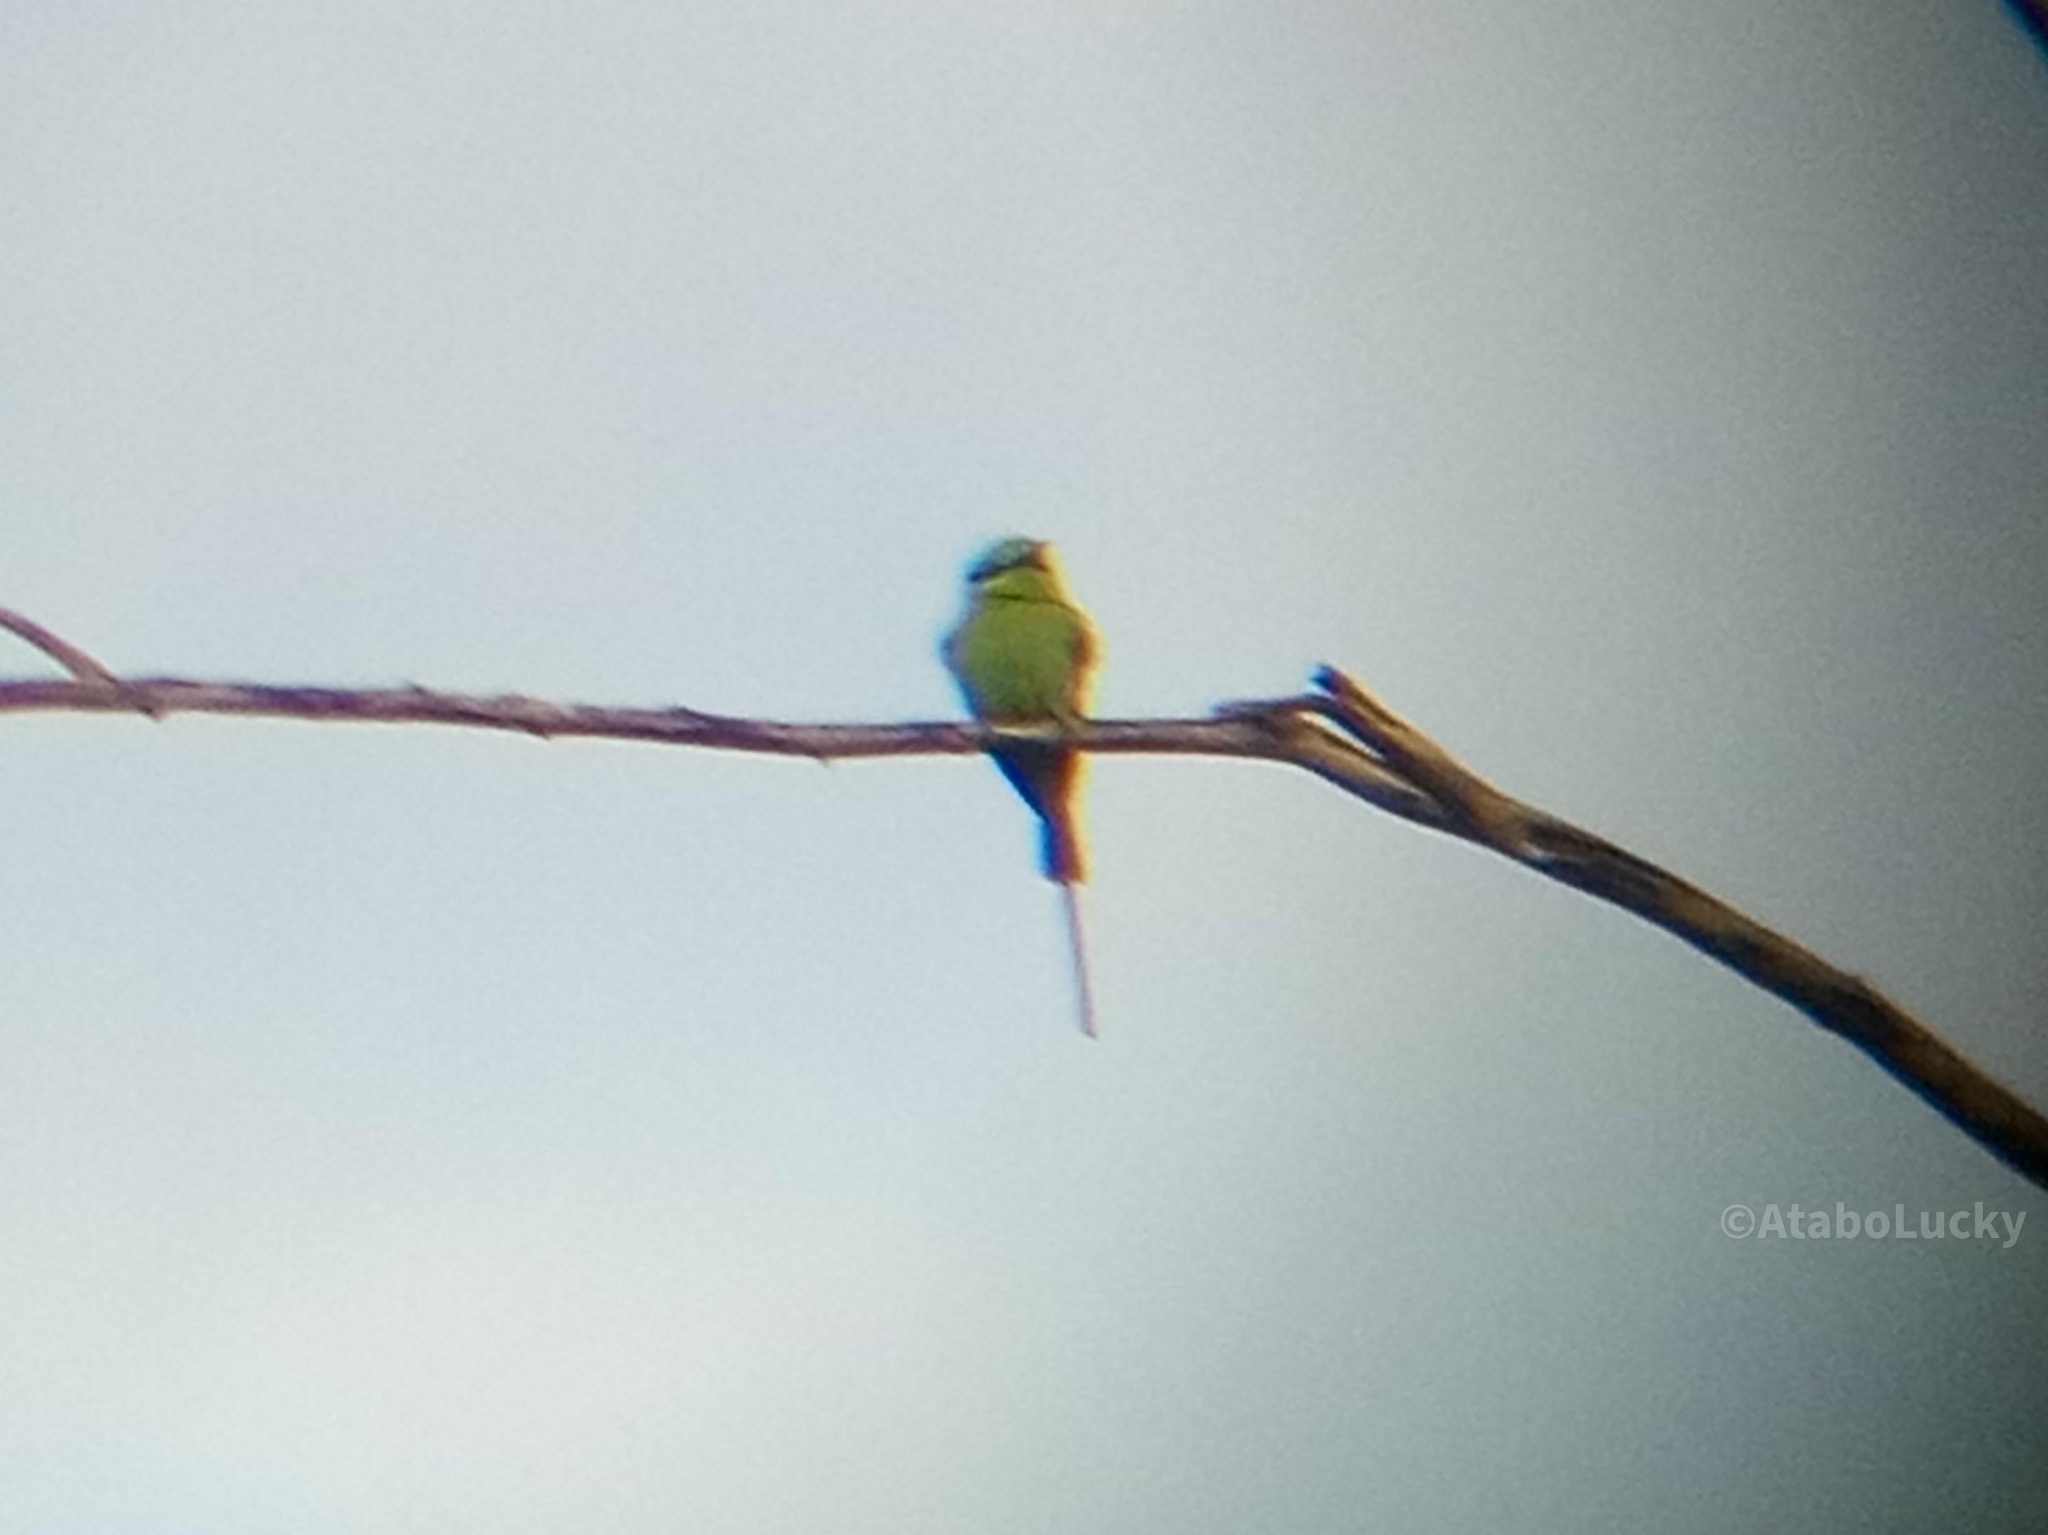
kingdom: Animalia
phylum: Chordata
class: Aves
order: Coraciiformes
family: Meropidae
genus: Merops
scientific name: Merops viridissimus
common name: African green bee-eater
